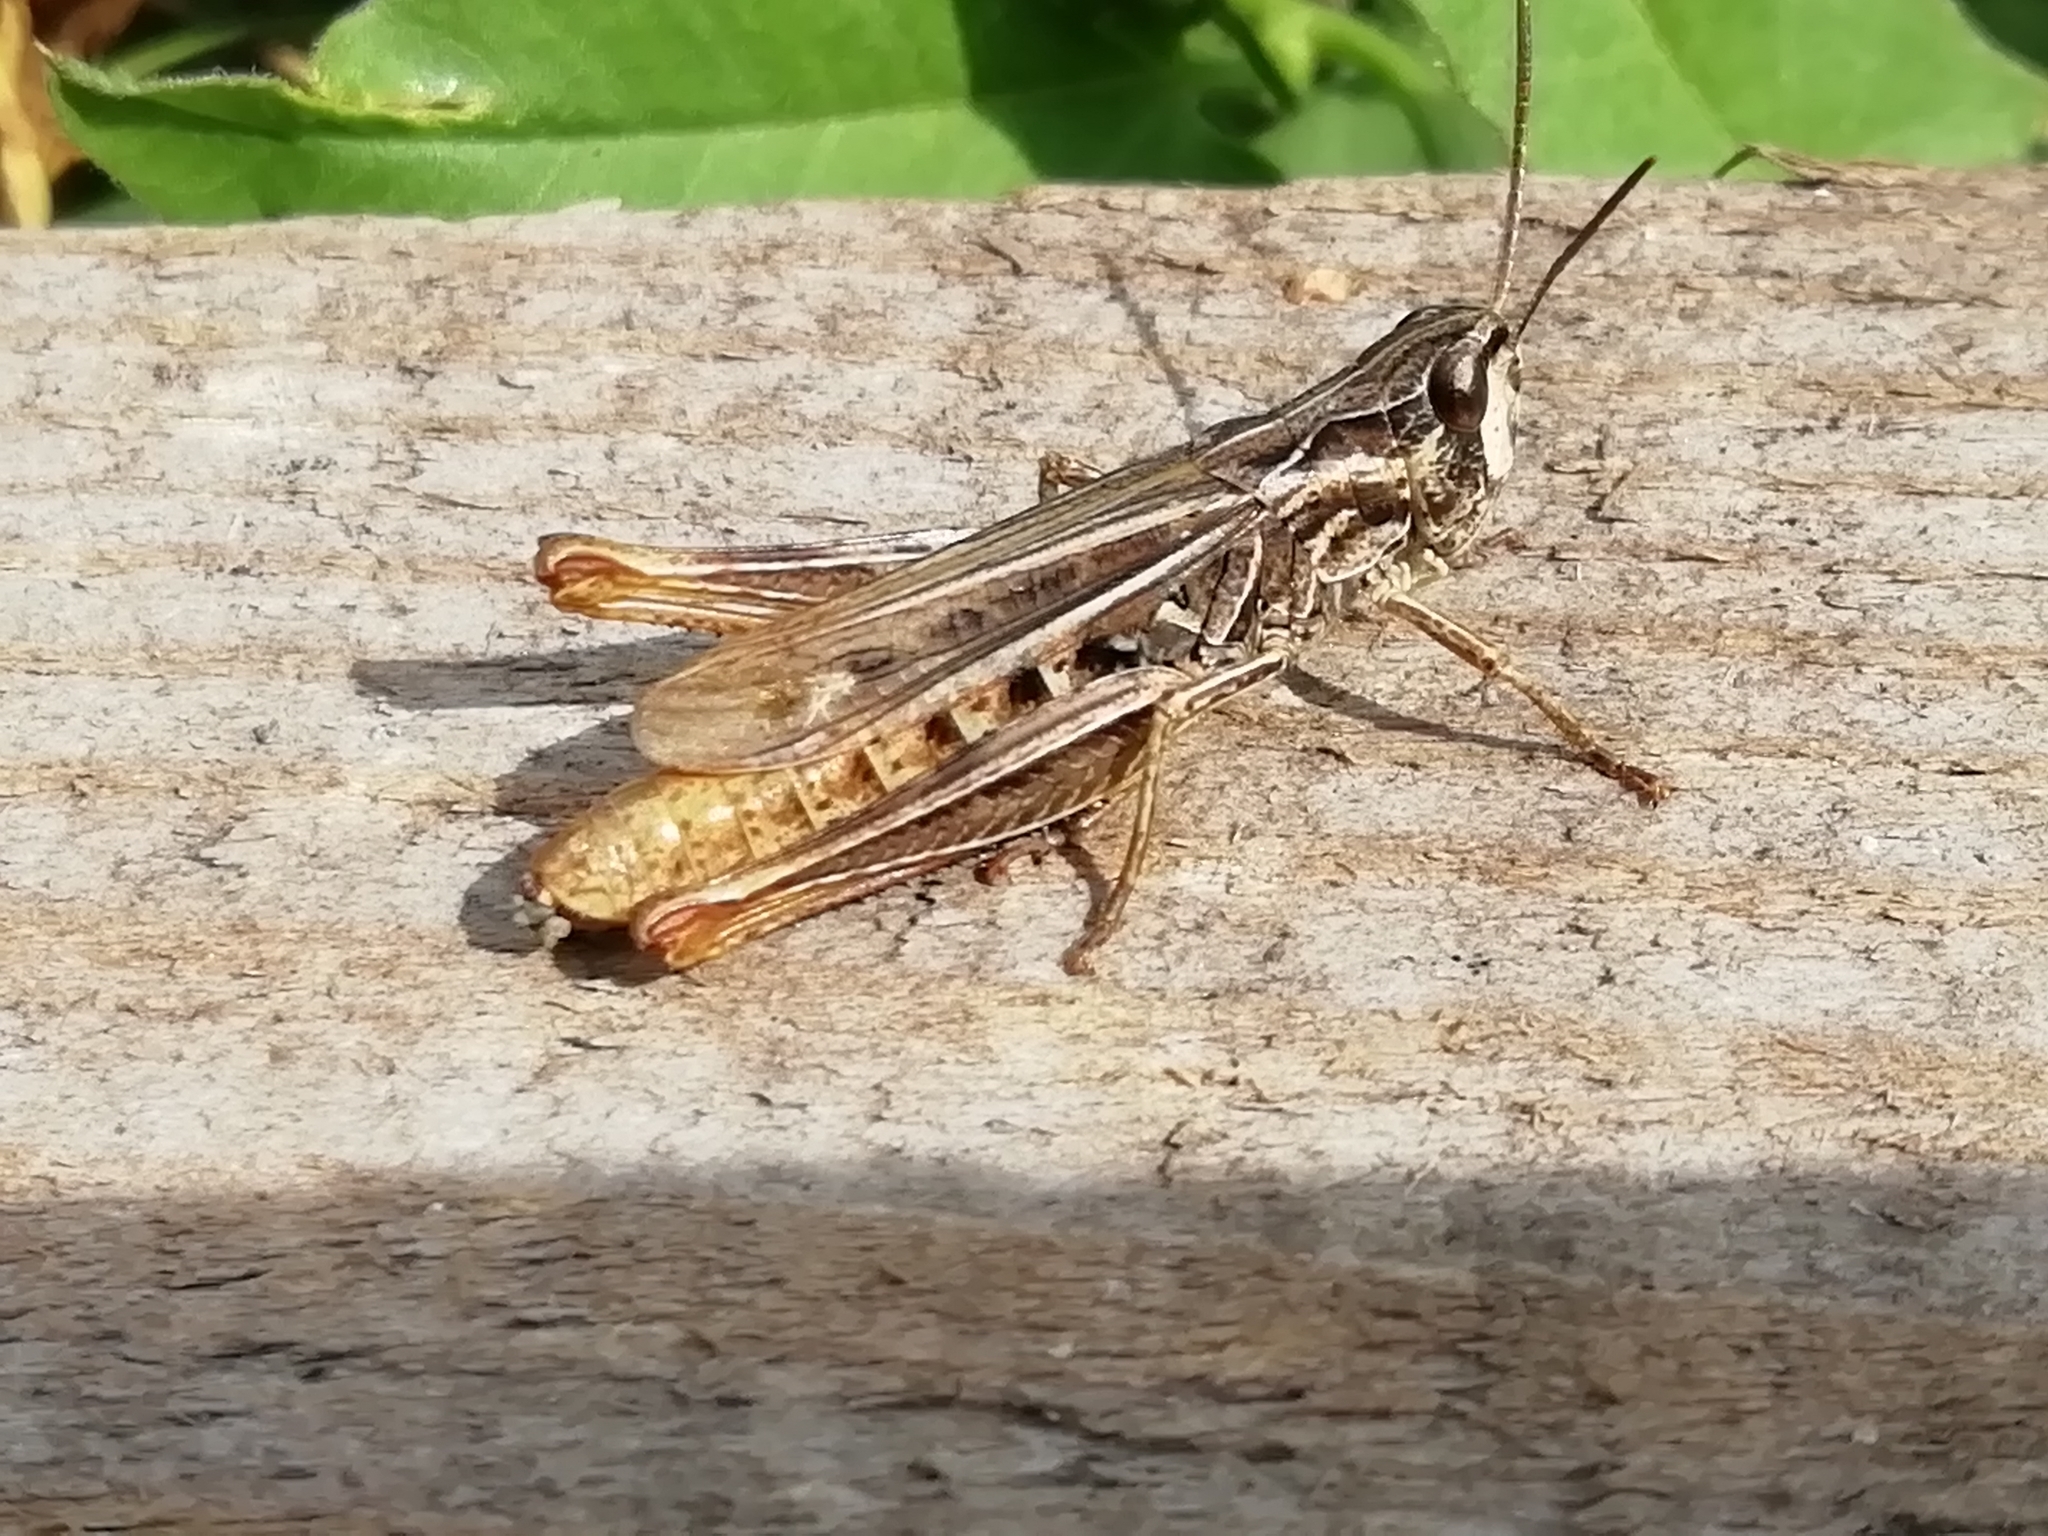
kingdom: Animalia
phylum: Arthropoda
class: Insecta
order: Orthoptera
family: Acrididae
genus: Chorthippus
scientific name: Chorthippus apricarius
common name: Upland field grasshopper
